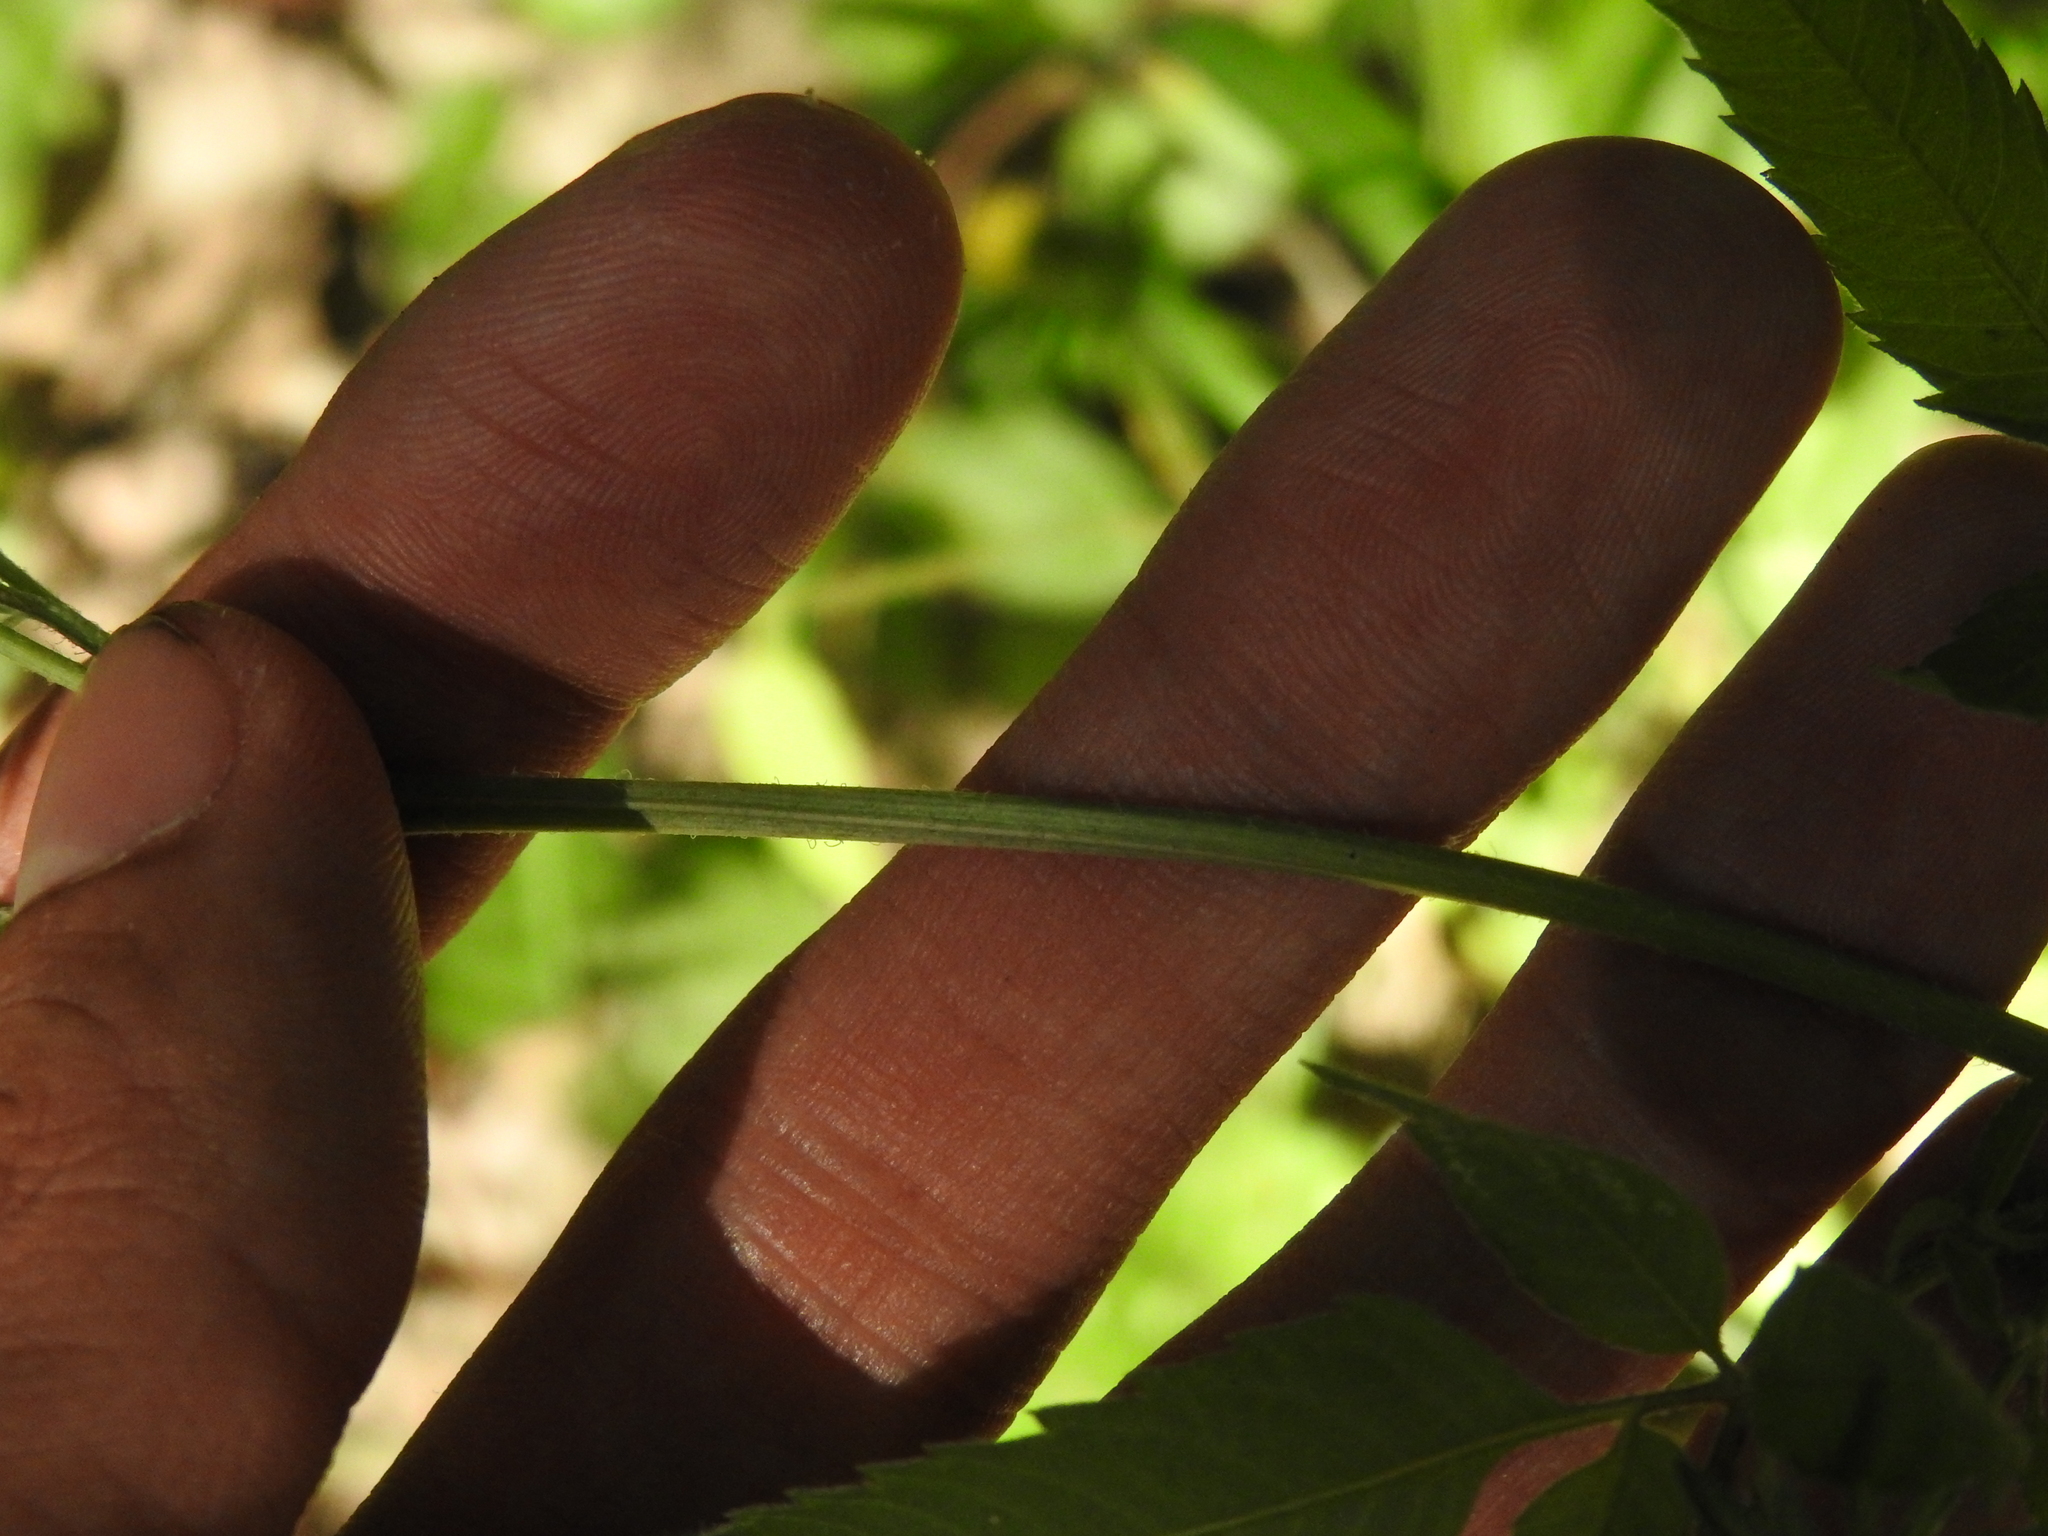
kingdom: Plantae
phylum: Tracheophyta
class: Magnoliopsida
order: Asterales
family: Asteraceae
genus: Bidens
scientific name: Bidens vulgata
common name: Tall beggarticks
